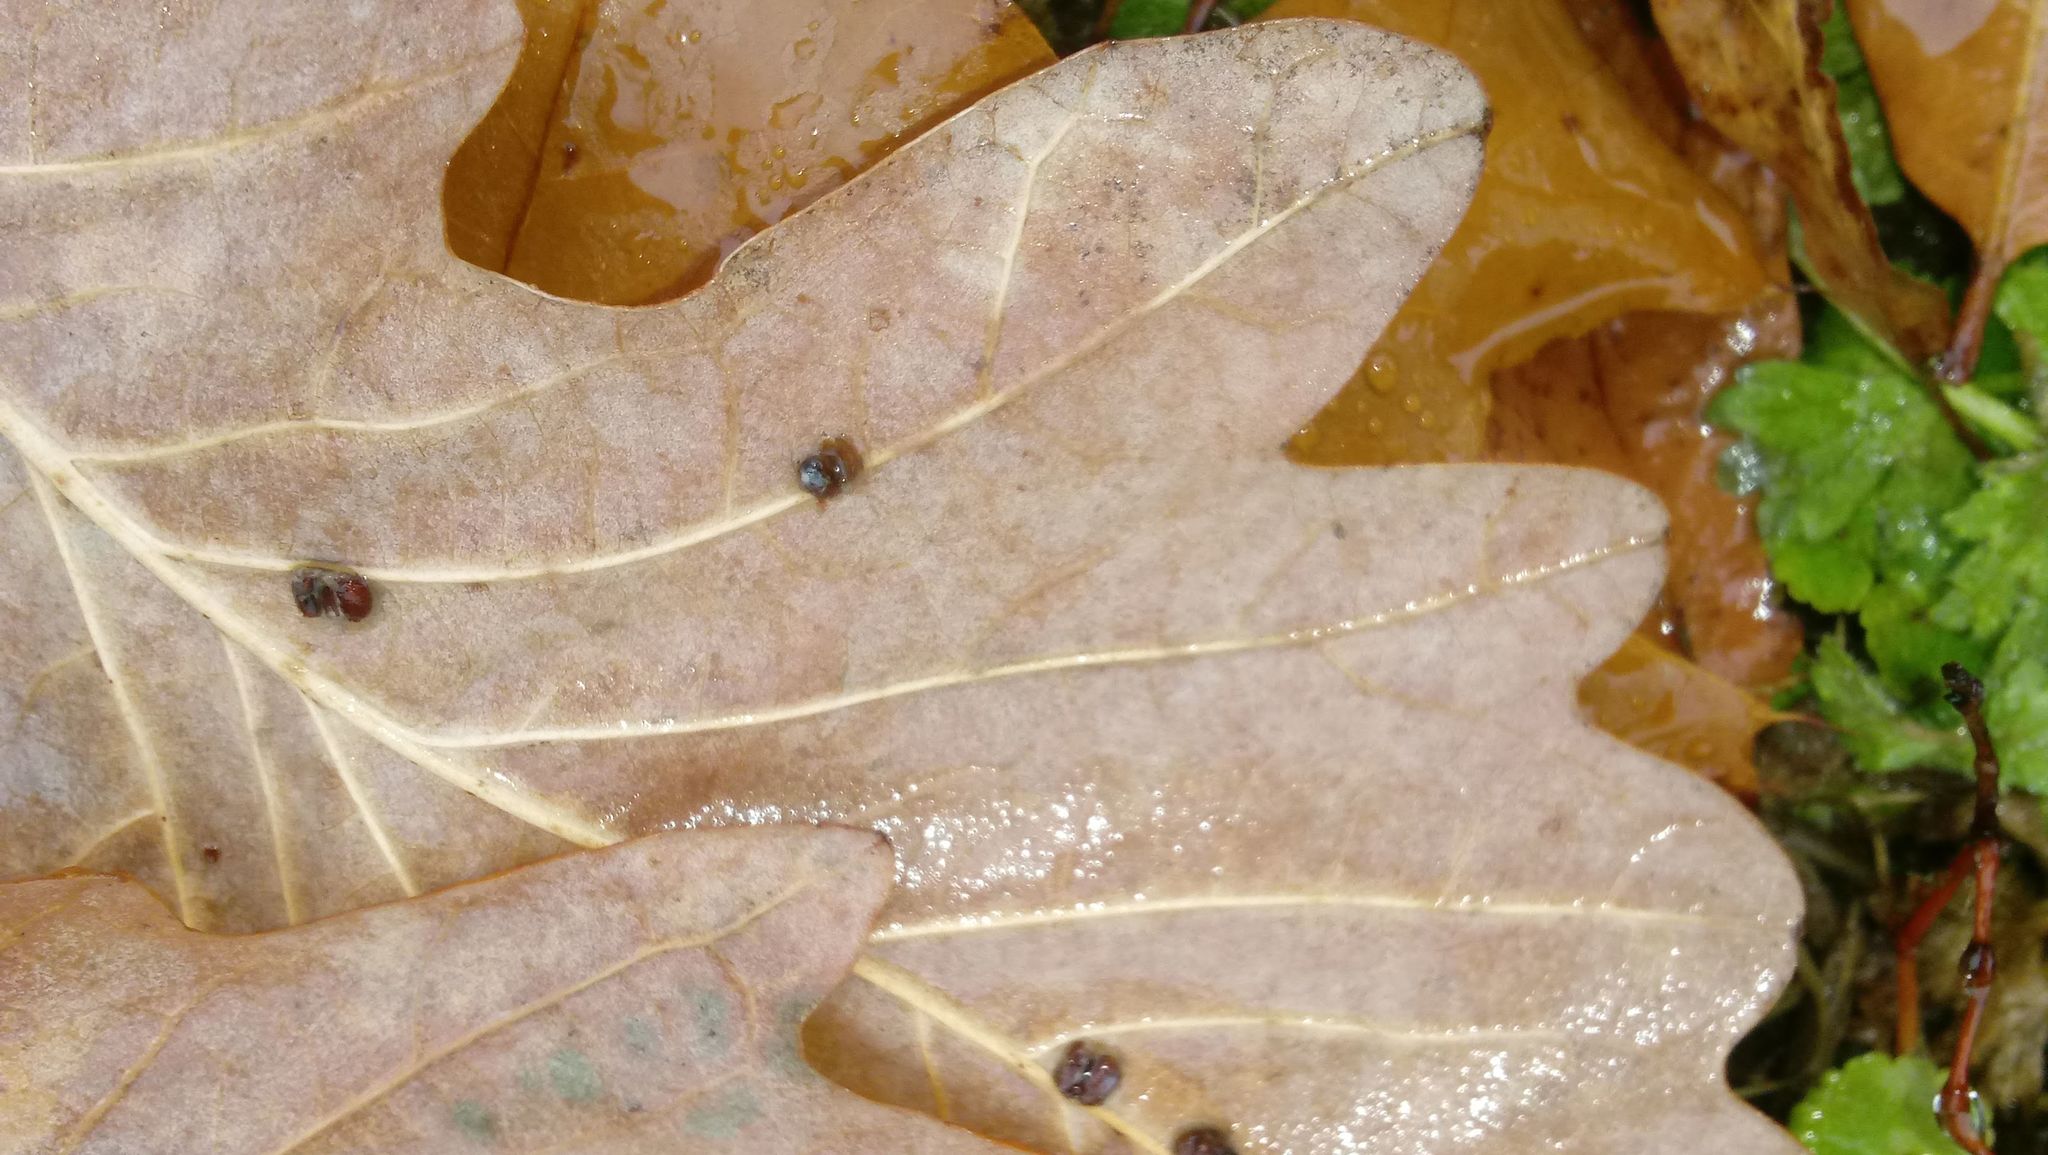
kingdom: Animalia
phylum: Arthropoda
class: Insecta
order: Hymenoptera
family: Cynipidae
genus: Andricus
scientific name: Andricus Druon ignotum
